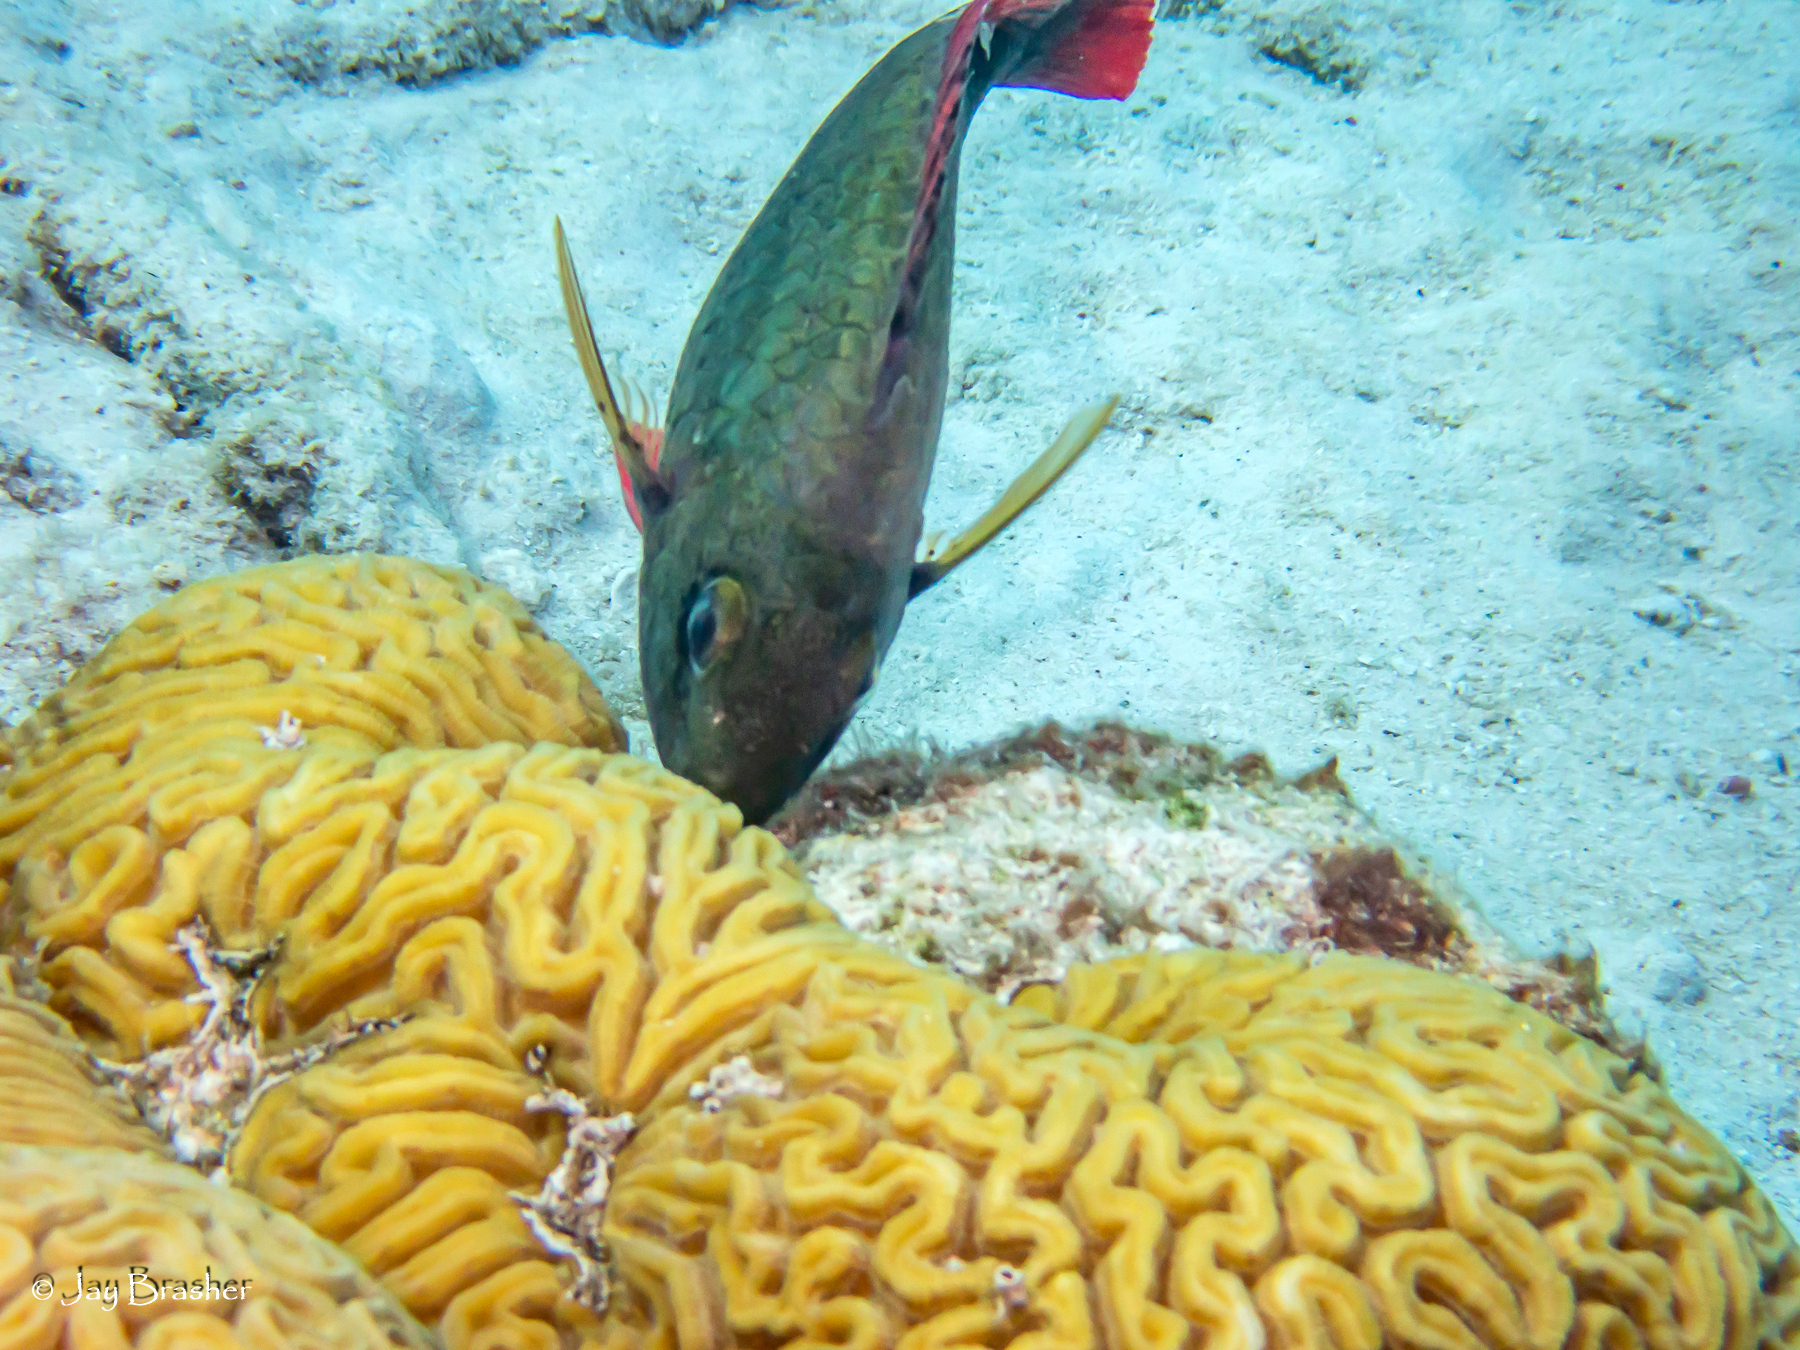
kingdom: Animalia
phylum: Chordata
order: Perciformes
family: Scaridae
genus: Sparisoma
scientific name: Sparisoma aurofrenatum
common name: Redband parrotfish
